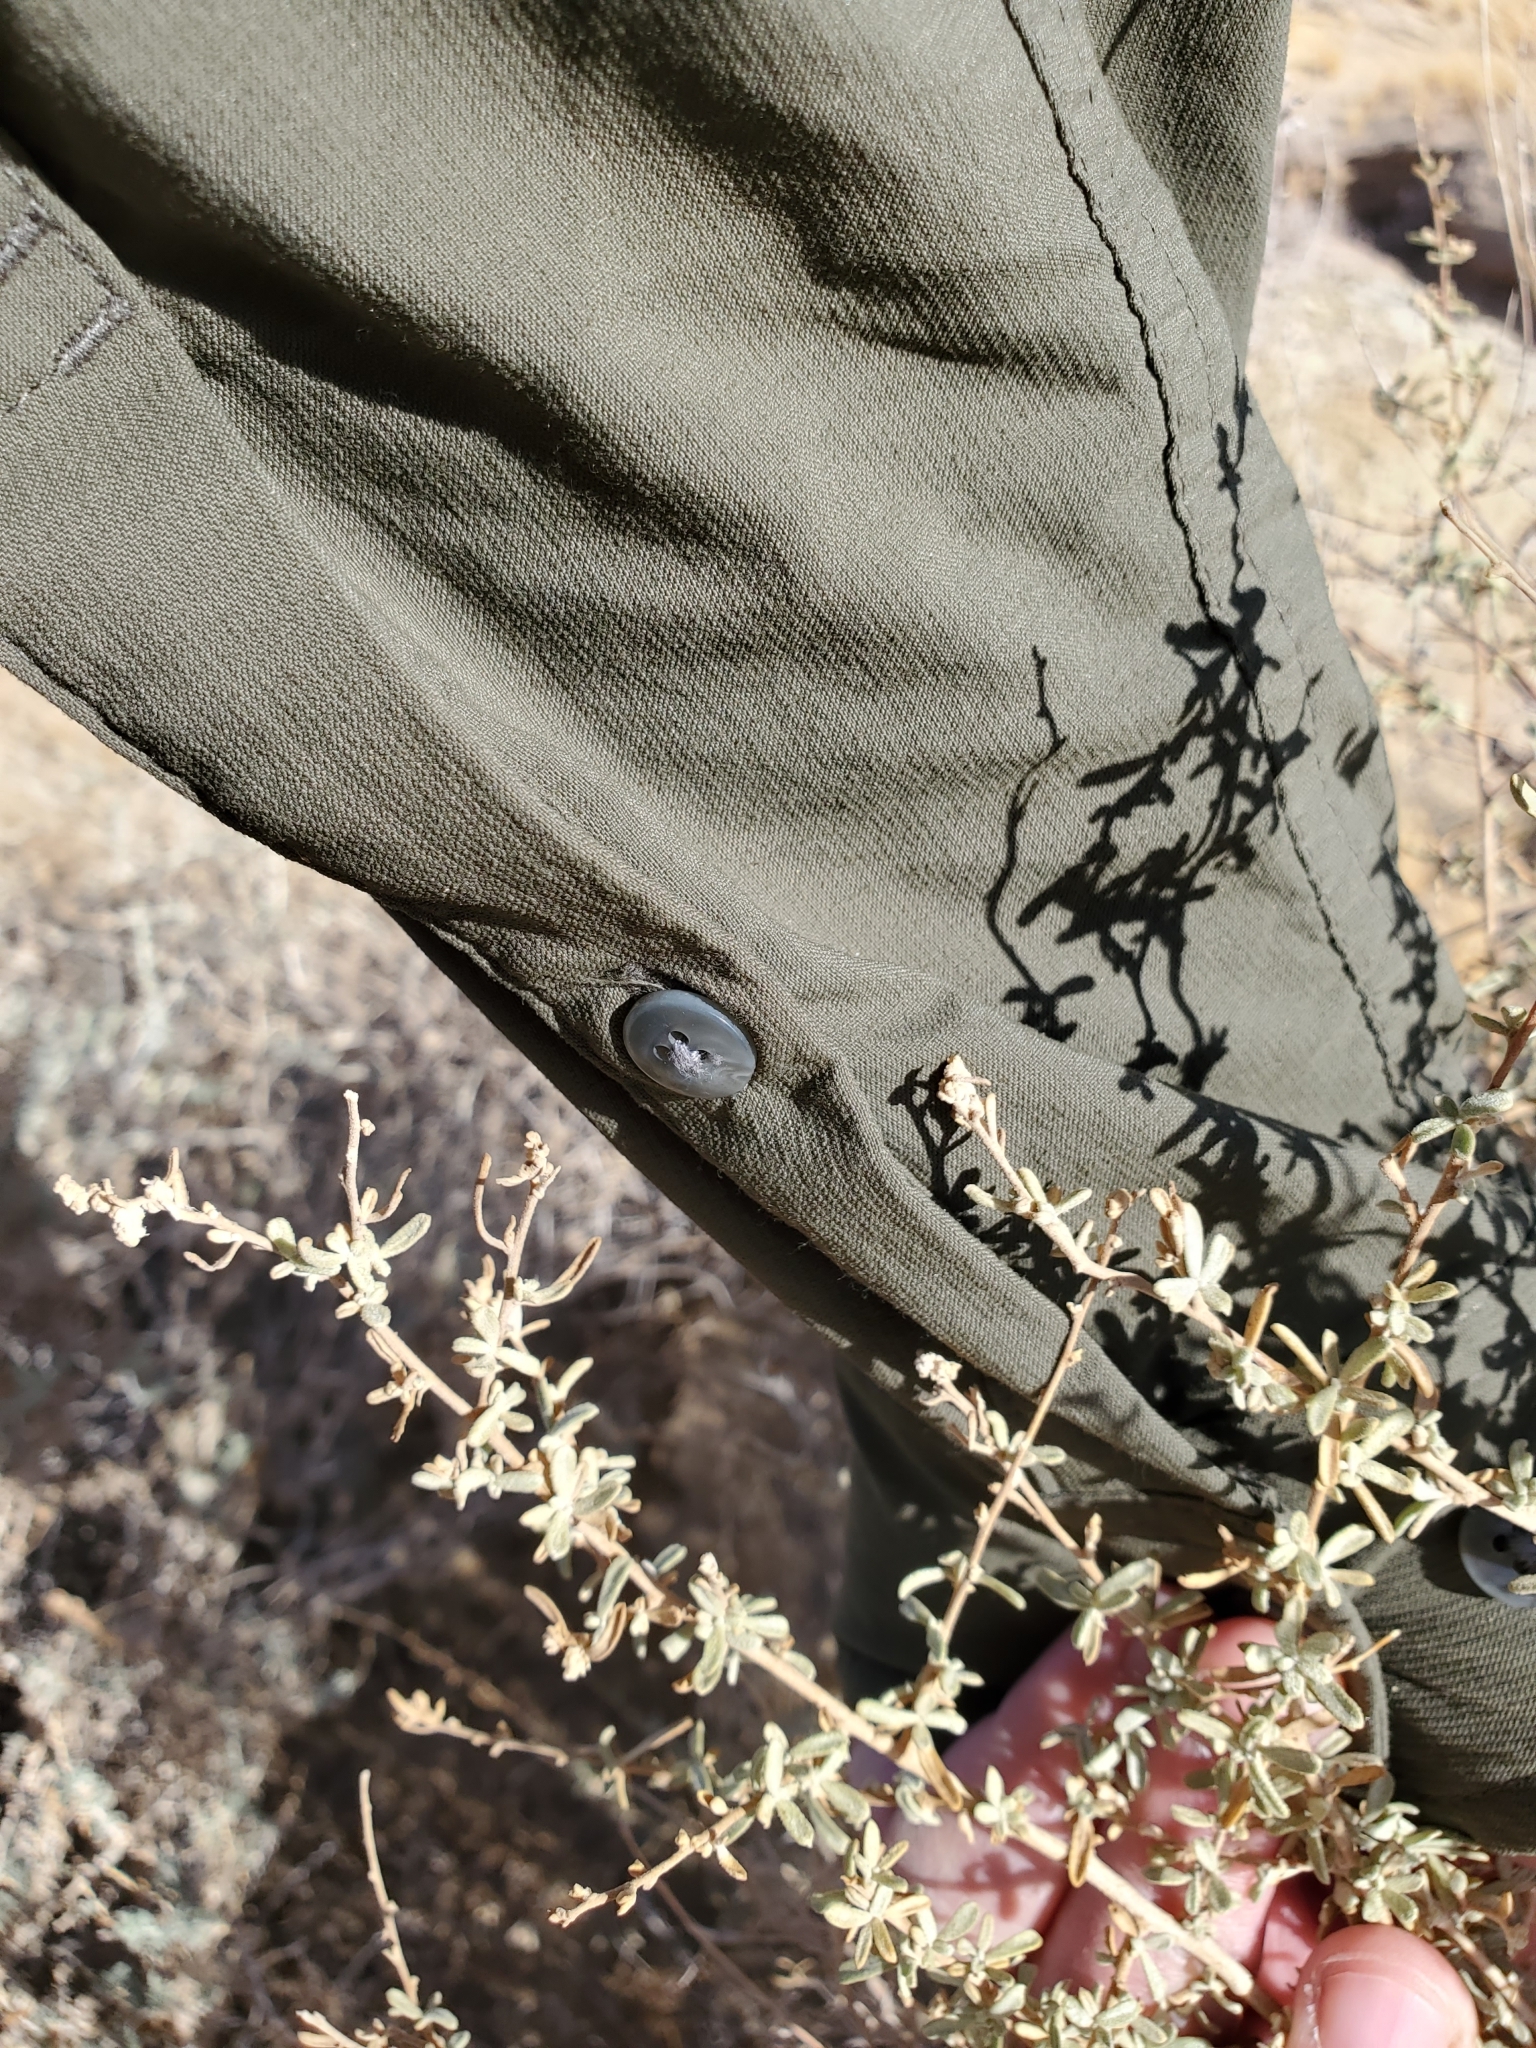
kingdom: Plantae
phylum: Tracheophyta
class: Magnoliopsida
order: Caryophyllales
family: Amaranthaceae
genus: Atriplex
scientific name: Atriplex canescens
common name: Four-wing saltbush
